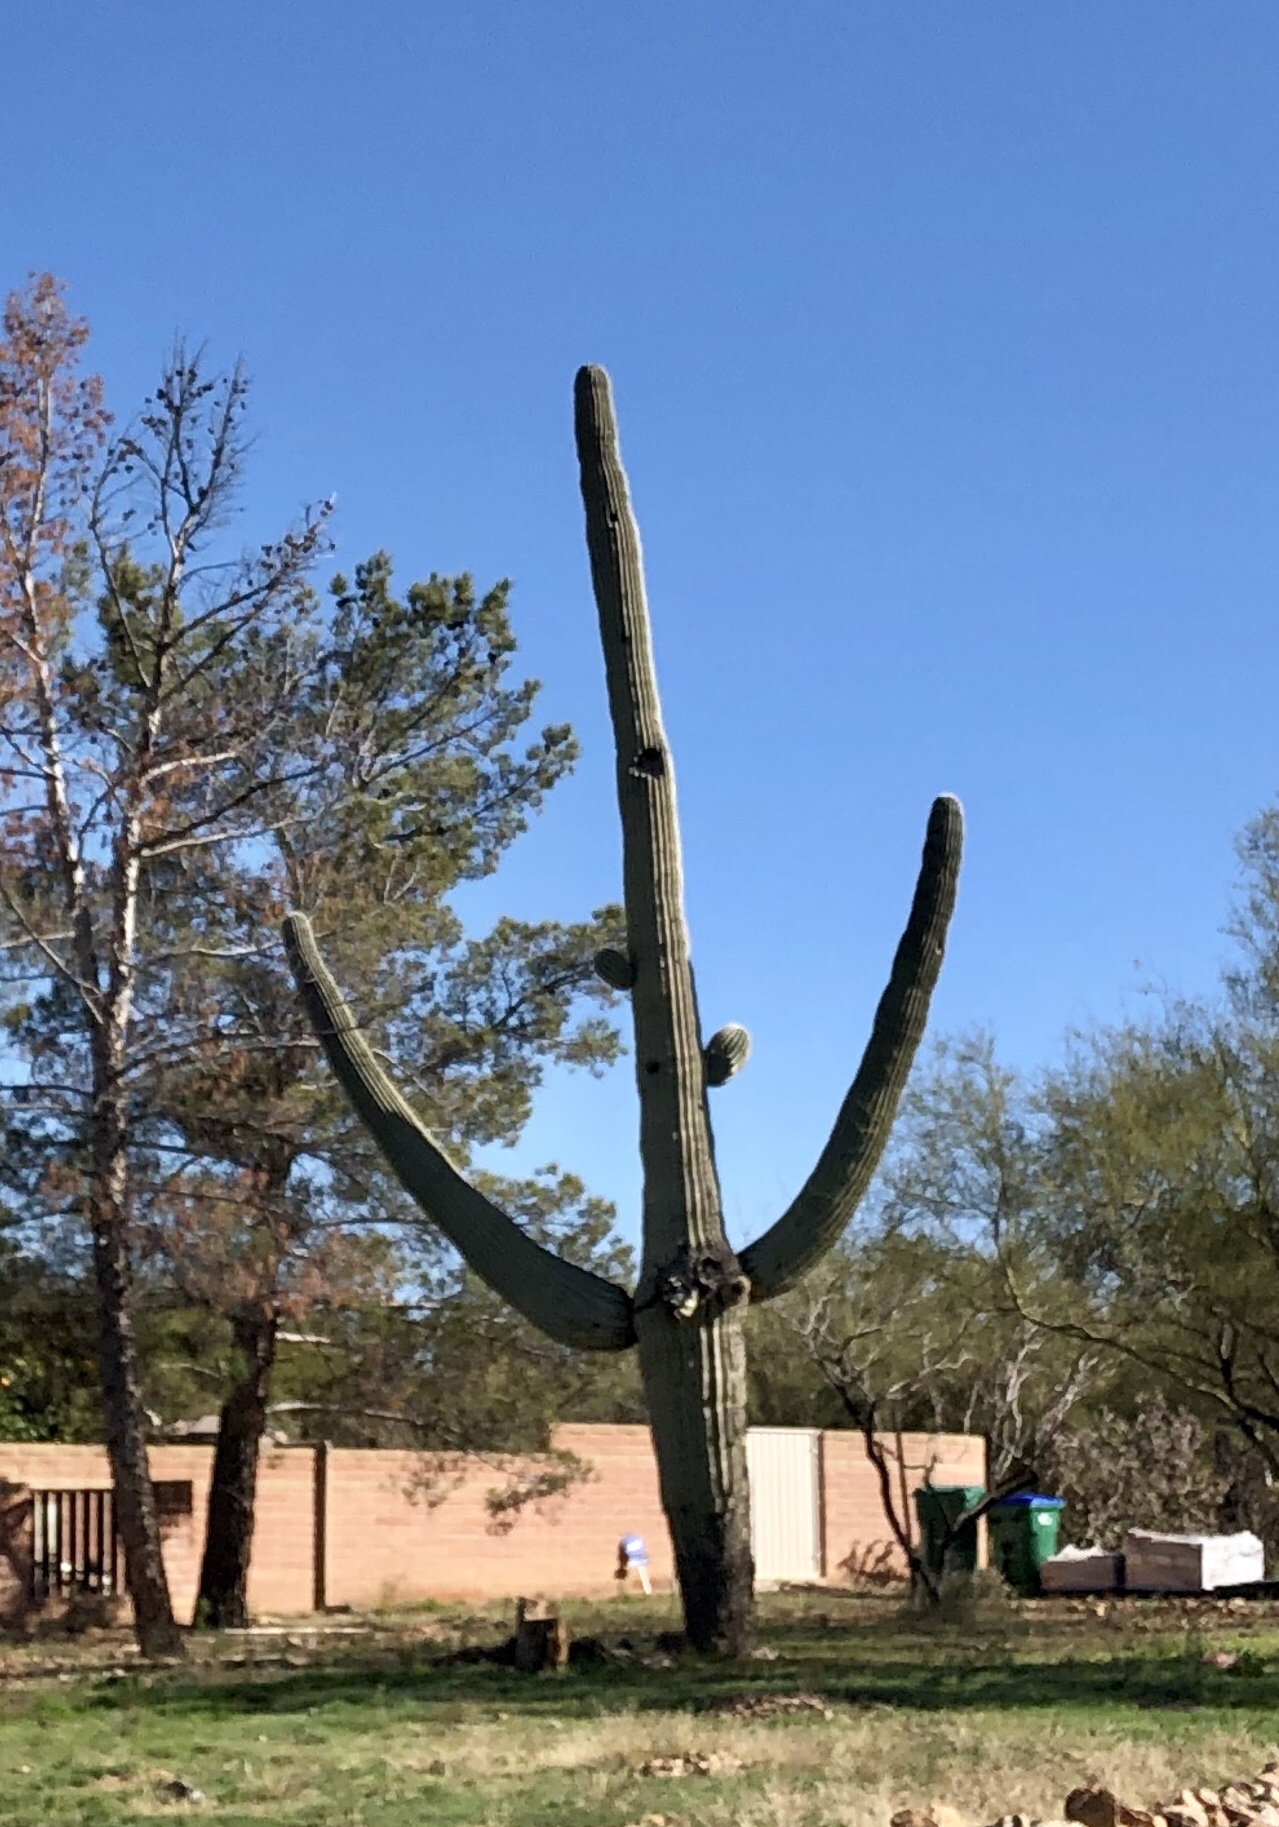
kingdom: Plantae
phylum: Tracheophyta
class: Magnoliopsida
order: Caryophyllales
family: Cactaceae
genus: Carnegiea
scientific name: Carnegiea gigantea
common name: Saguaro
